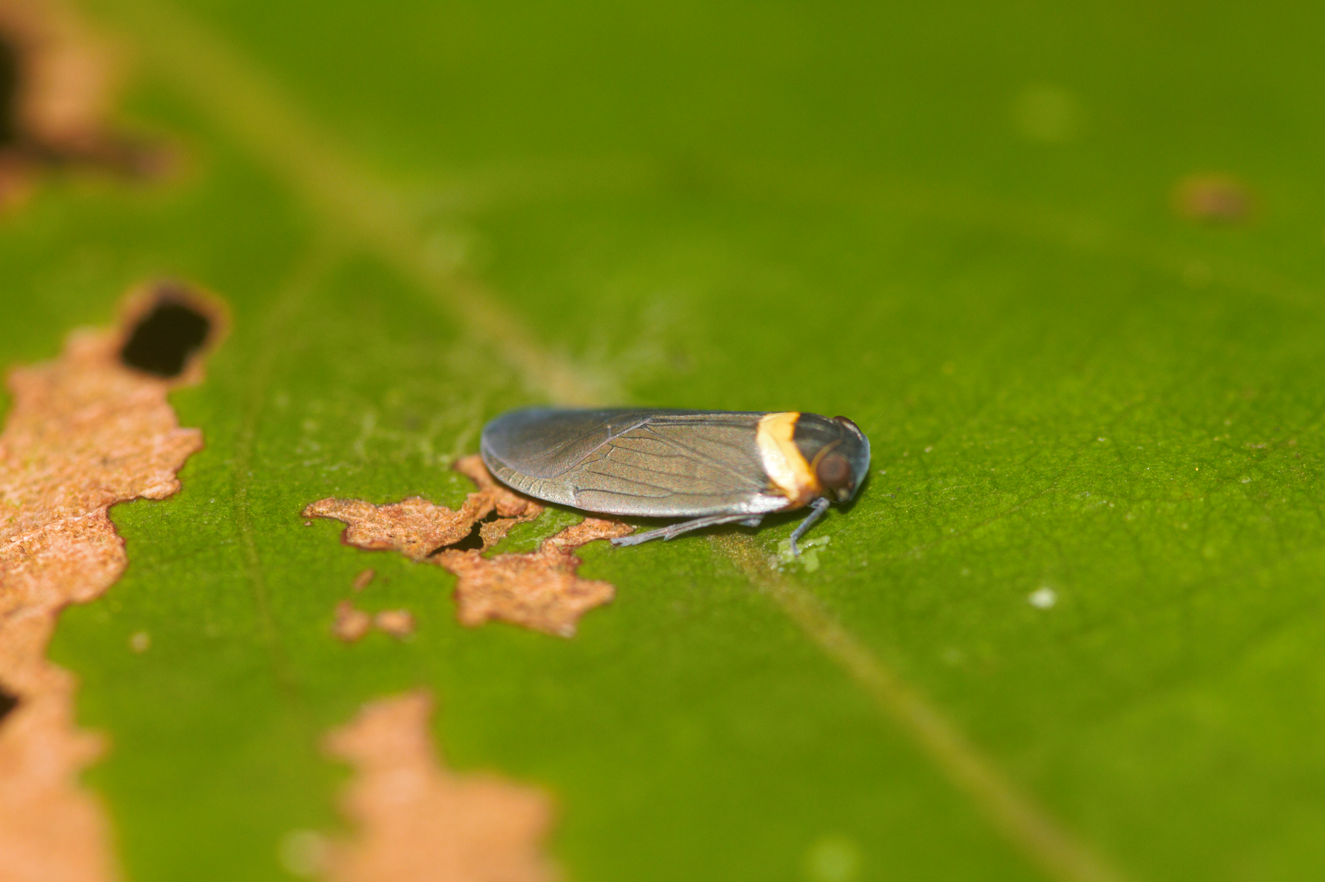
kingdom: Animalia
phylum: Arthropoda
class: Insecta
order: Hemiptera
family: Achilidae
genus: Plectoderes
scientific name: Plectoderes collaris
